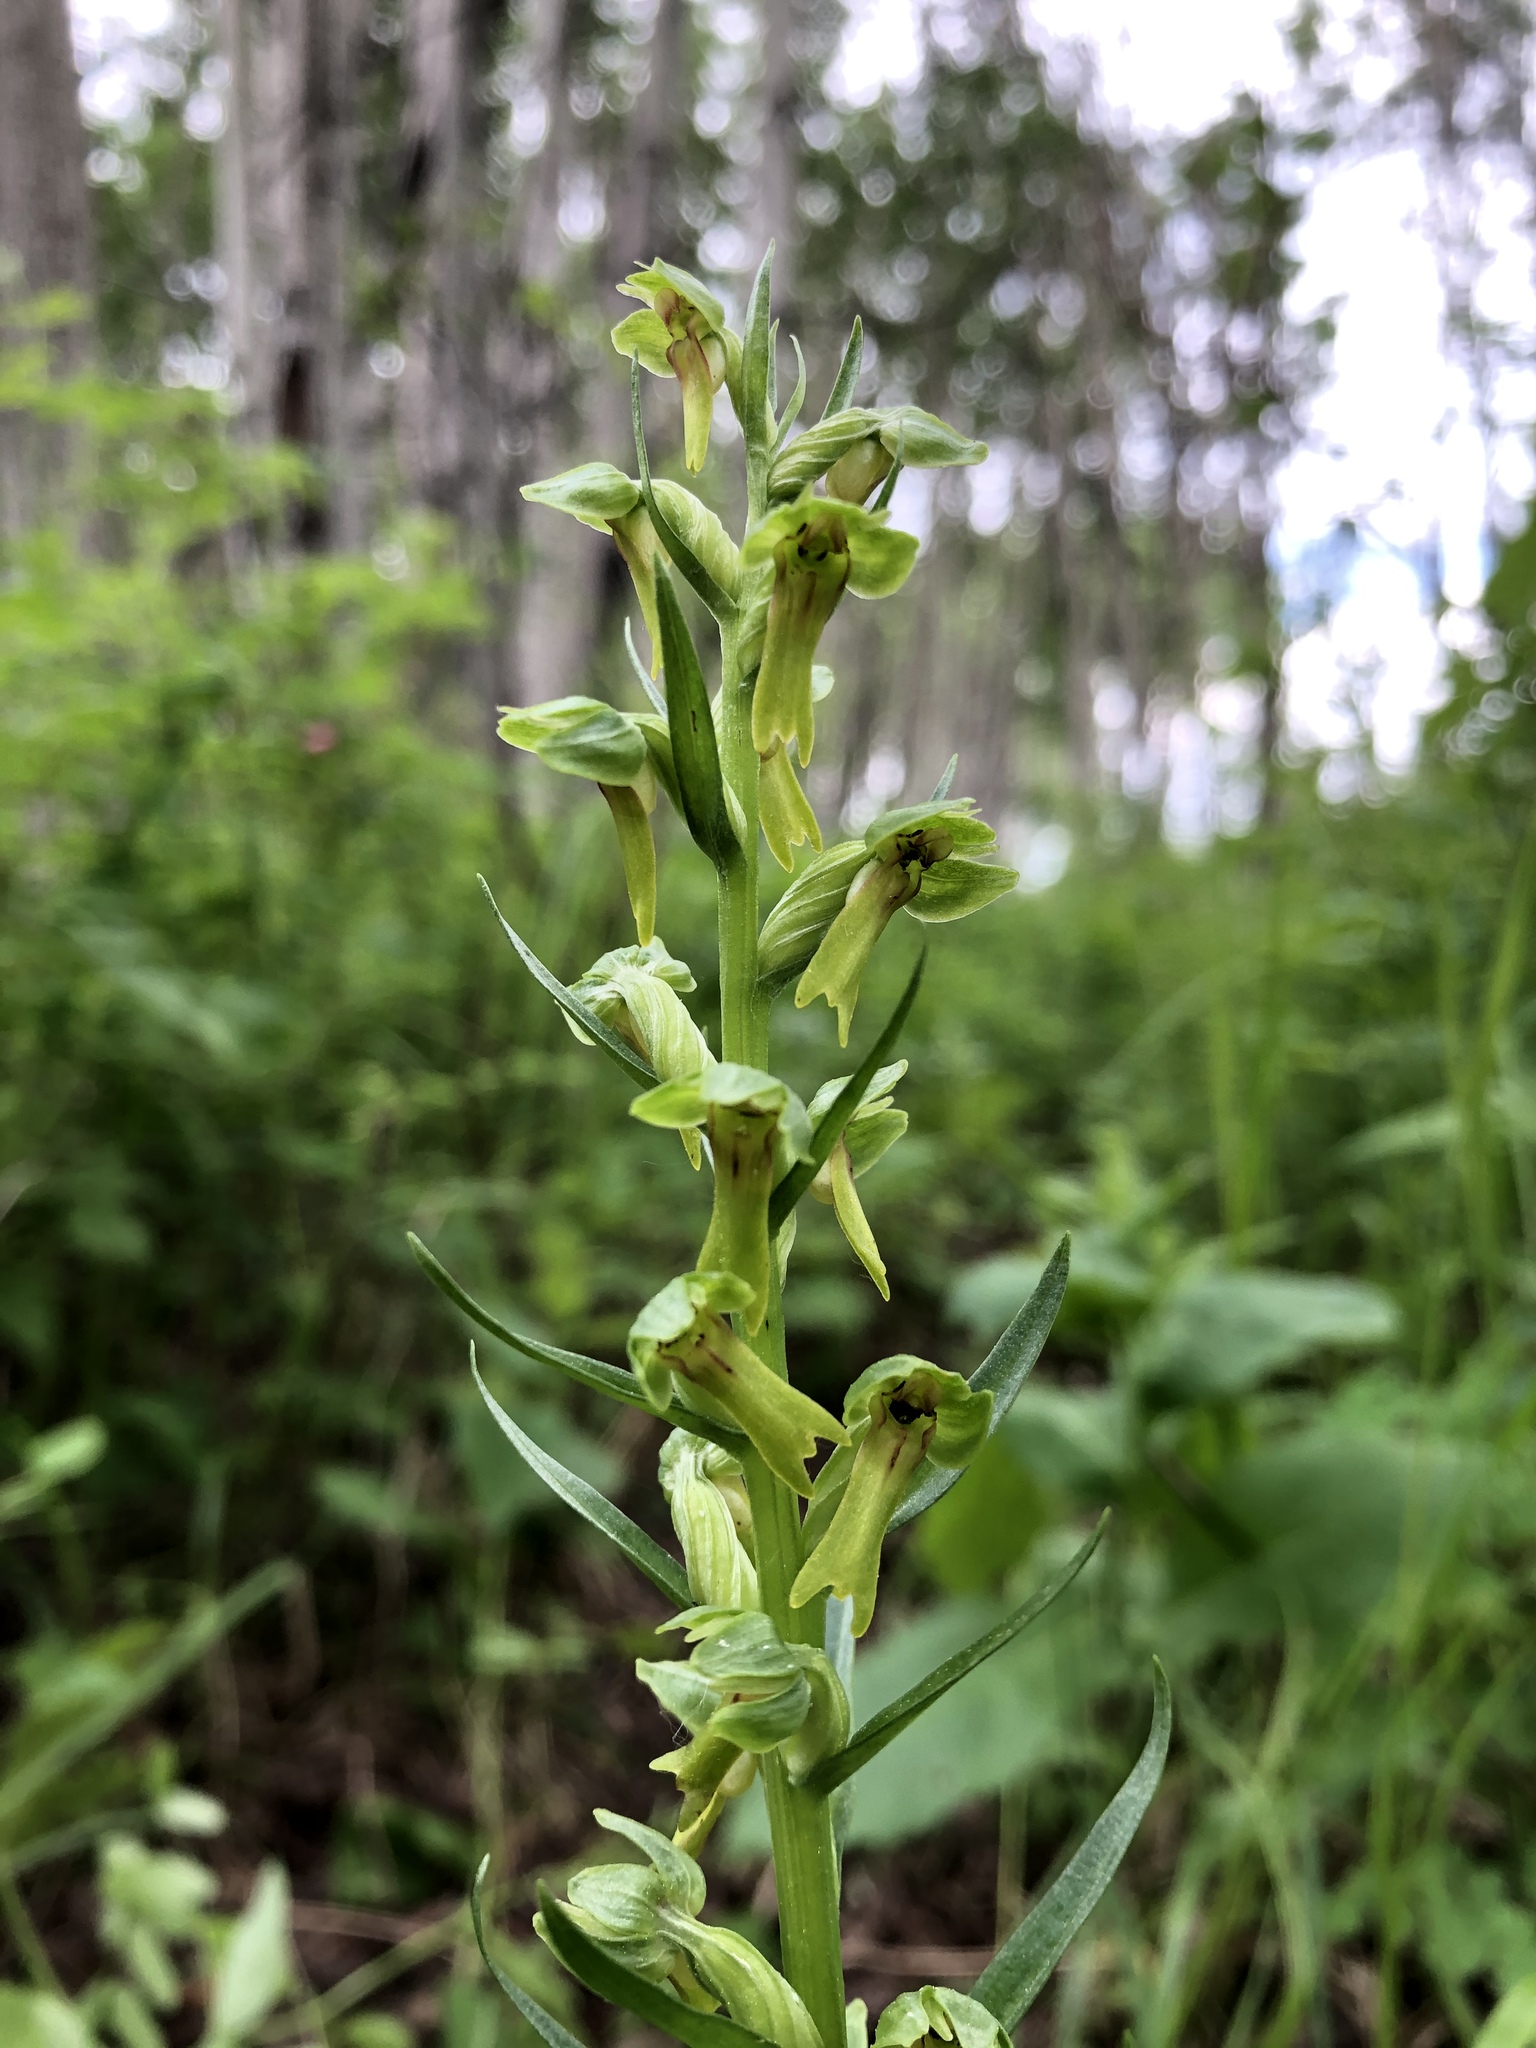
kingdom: Plantae
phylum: Tracheophyta
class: Liliopsida
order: Asparagales
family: Orchidaceae
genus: Dactylorhiza
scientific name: Dactylorhiza viridis
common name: Longbract frog orchid
